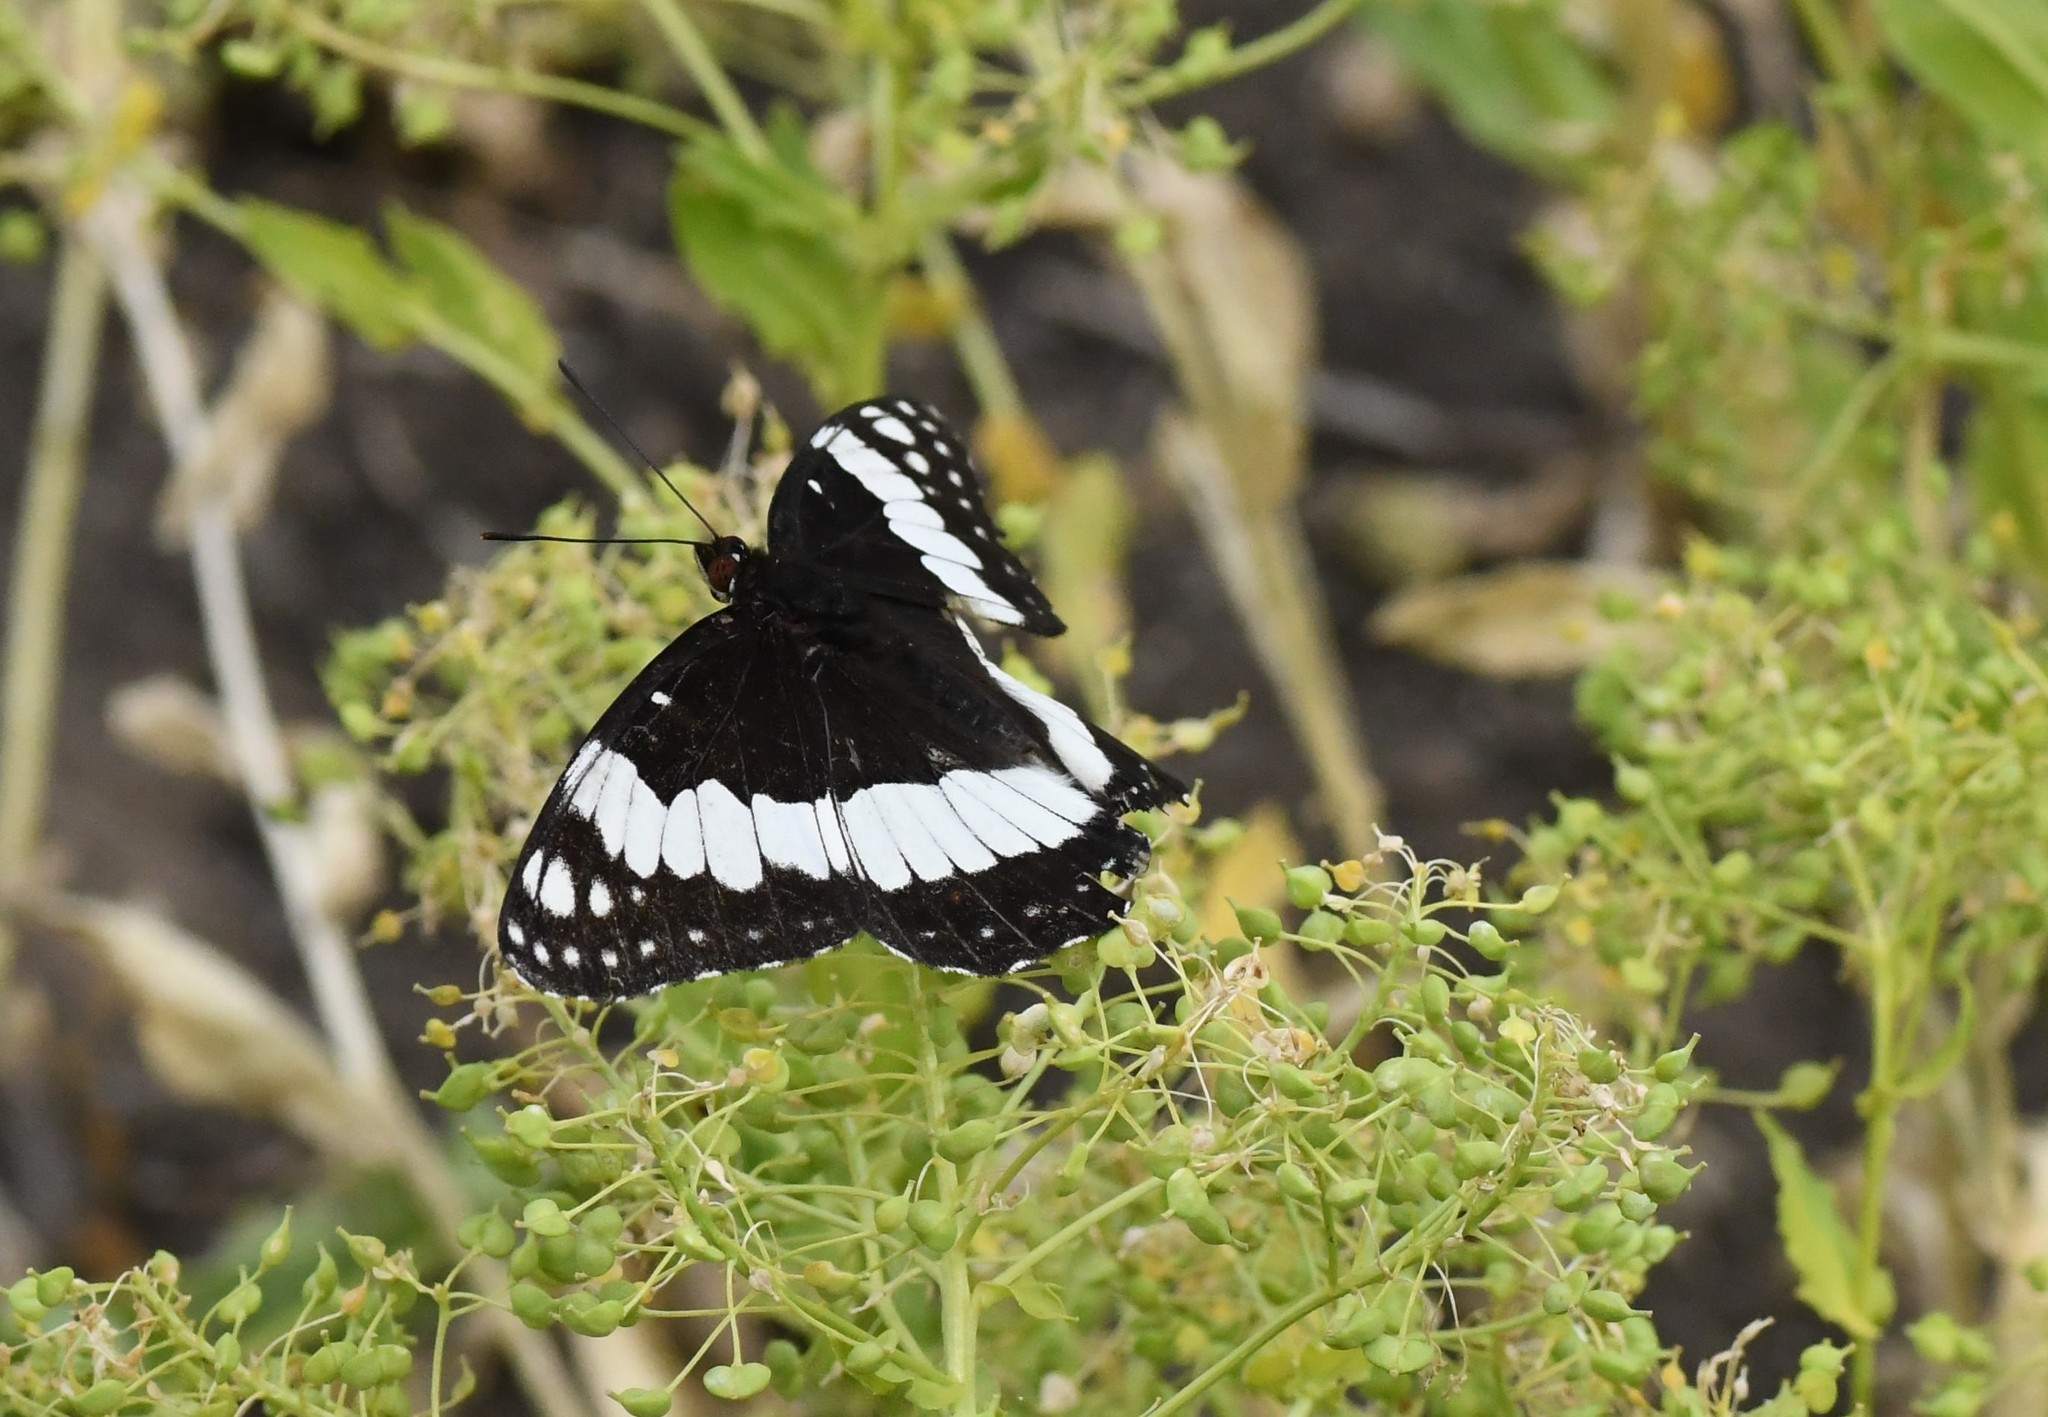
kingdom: Animalia
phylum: Arthropoda
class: Insecta
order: Lepidoptera
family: Nymphalidae
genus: Limenitis
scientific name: Limenitis weidemeyerii
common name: Weidemeyer's admiral
